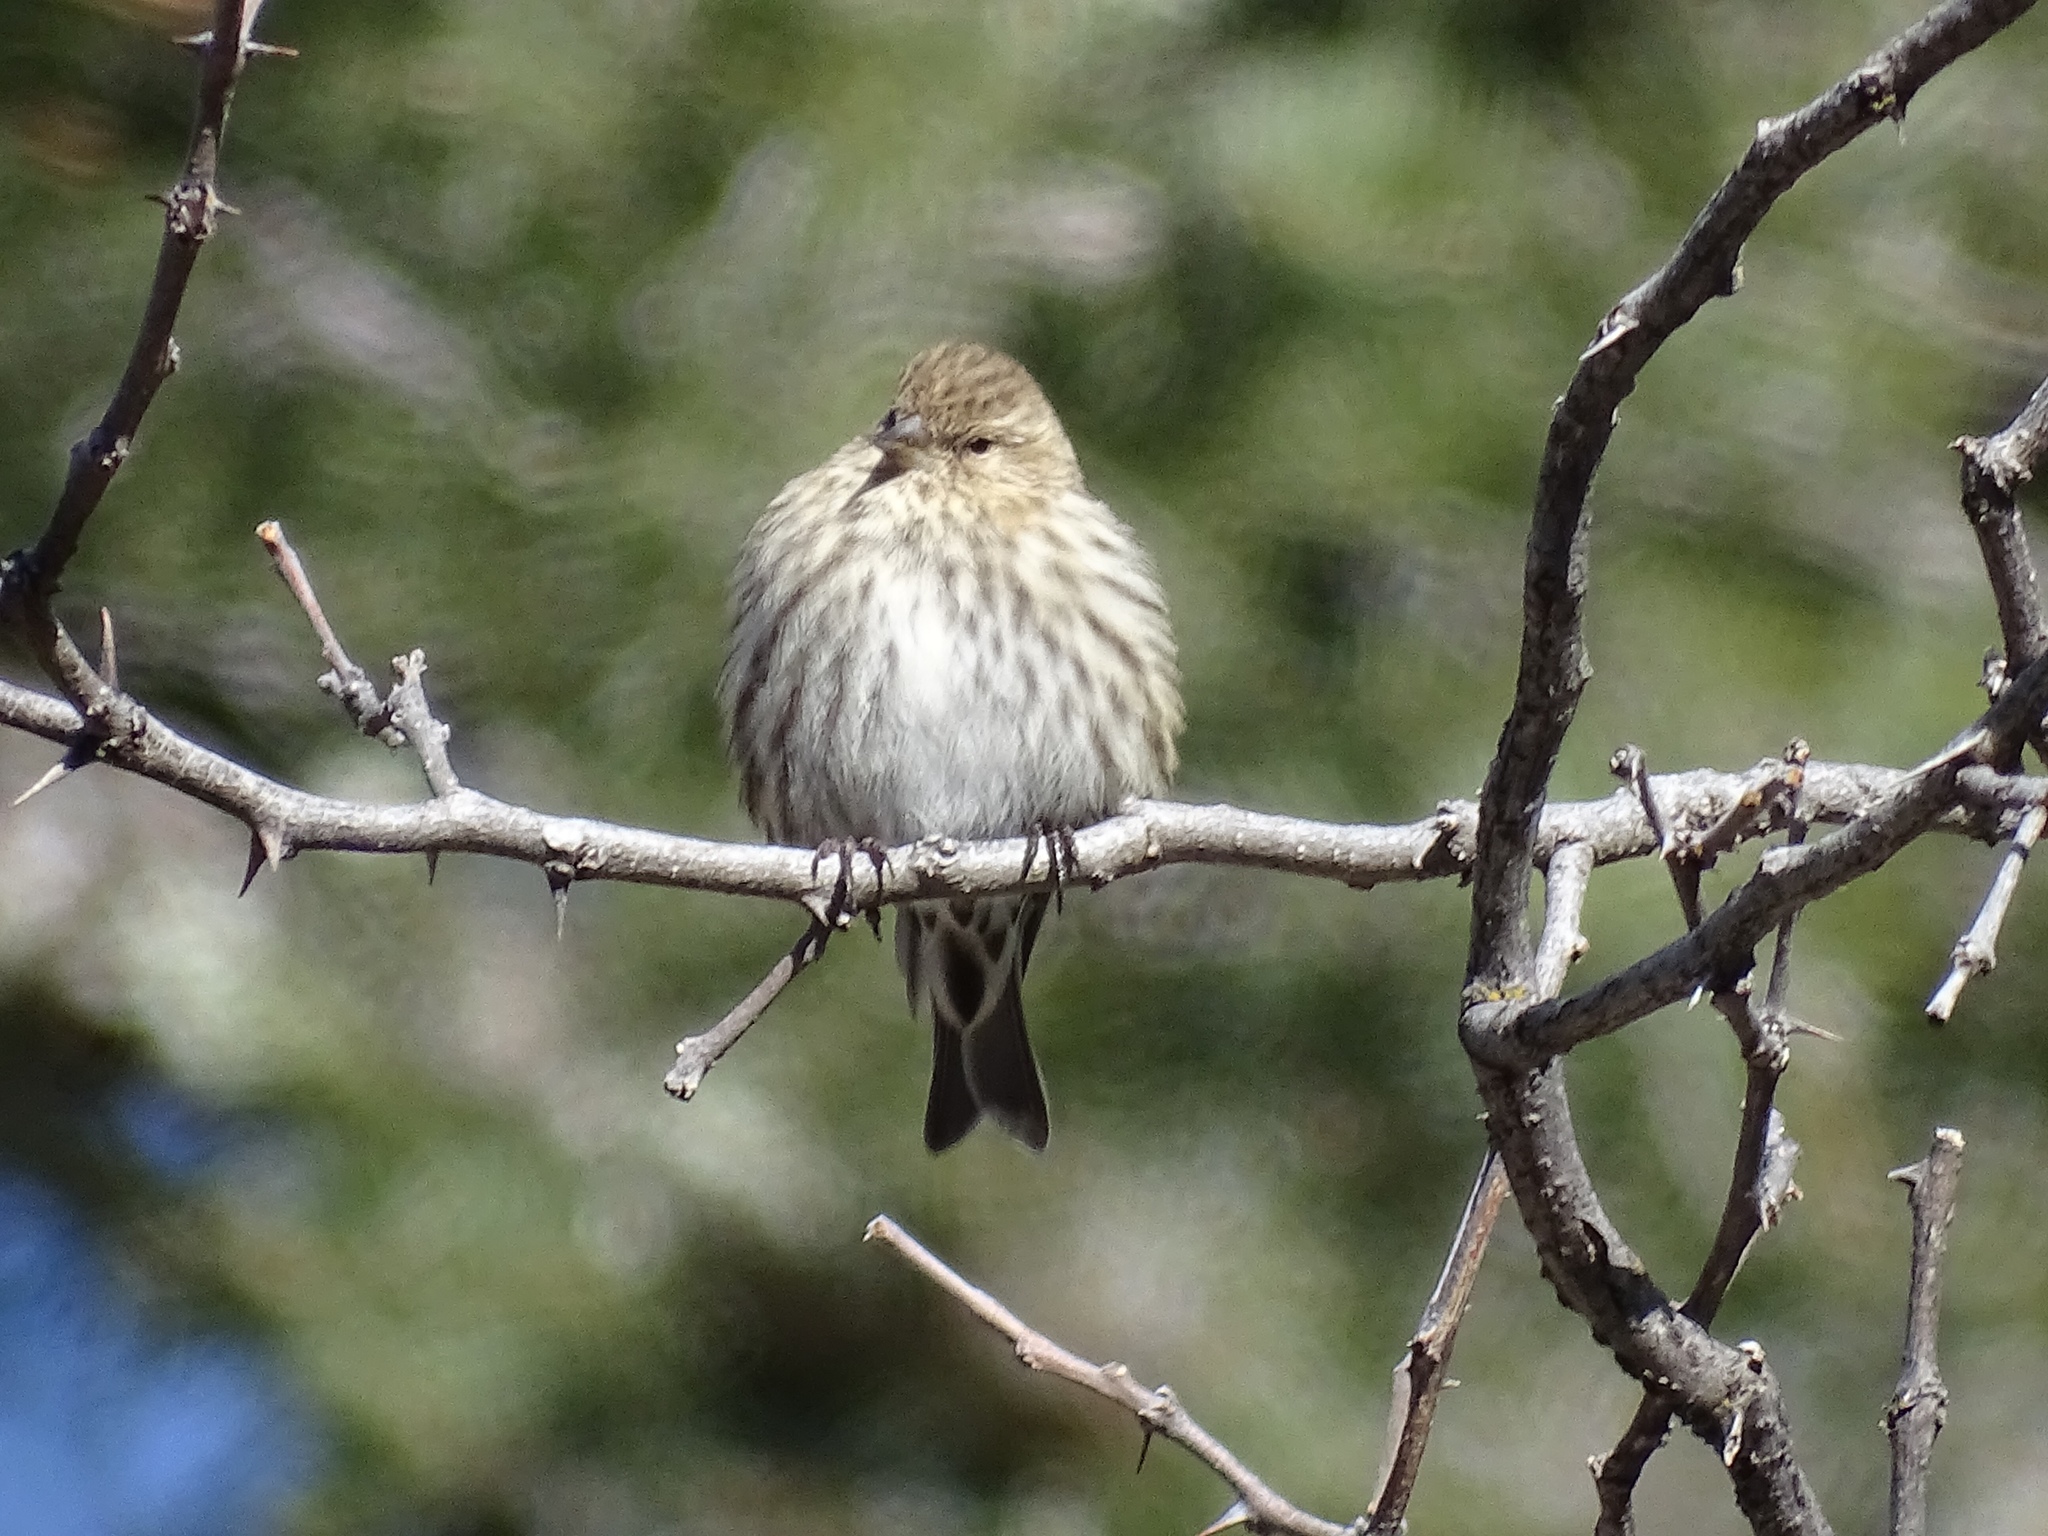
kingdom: Animalia
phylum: Chordata
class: Aves
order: Passeriformes
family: Fringillidae
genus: Spinus
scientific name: Spinus pinus
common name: Pine siskin
